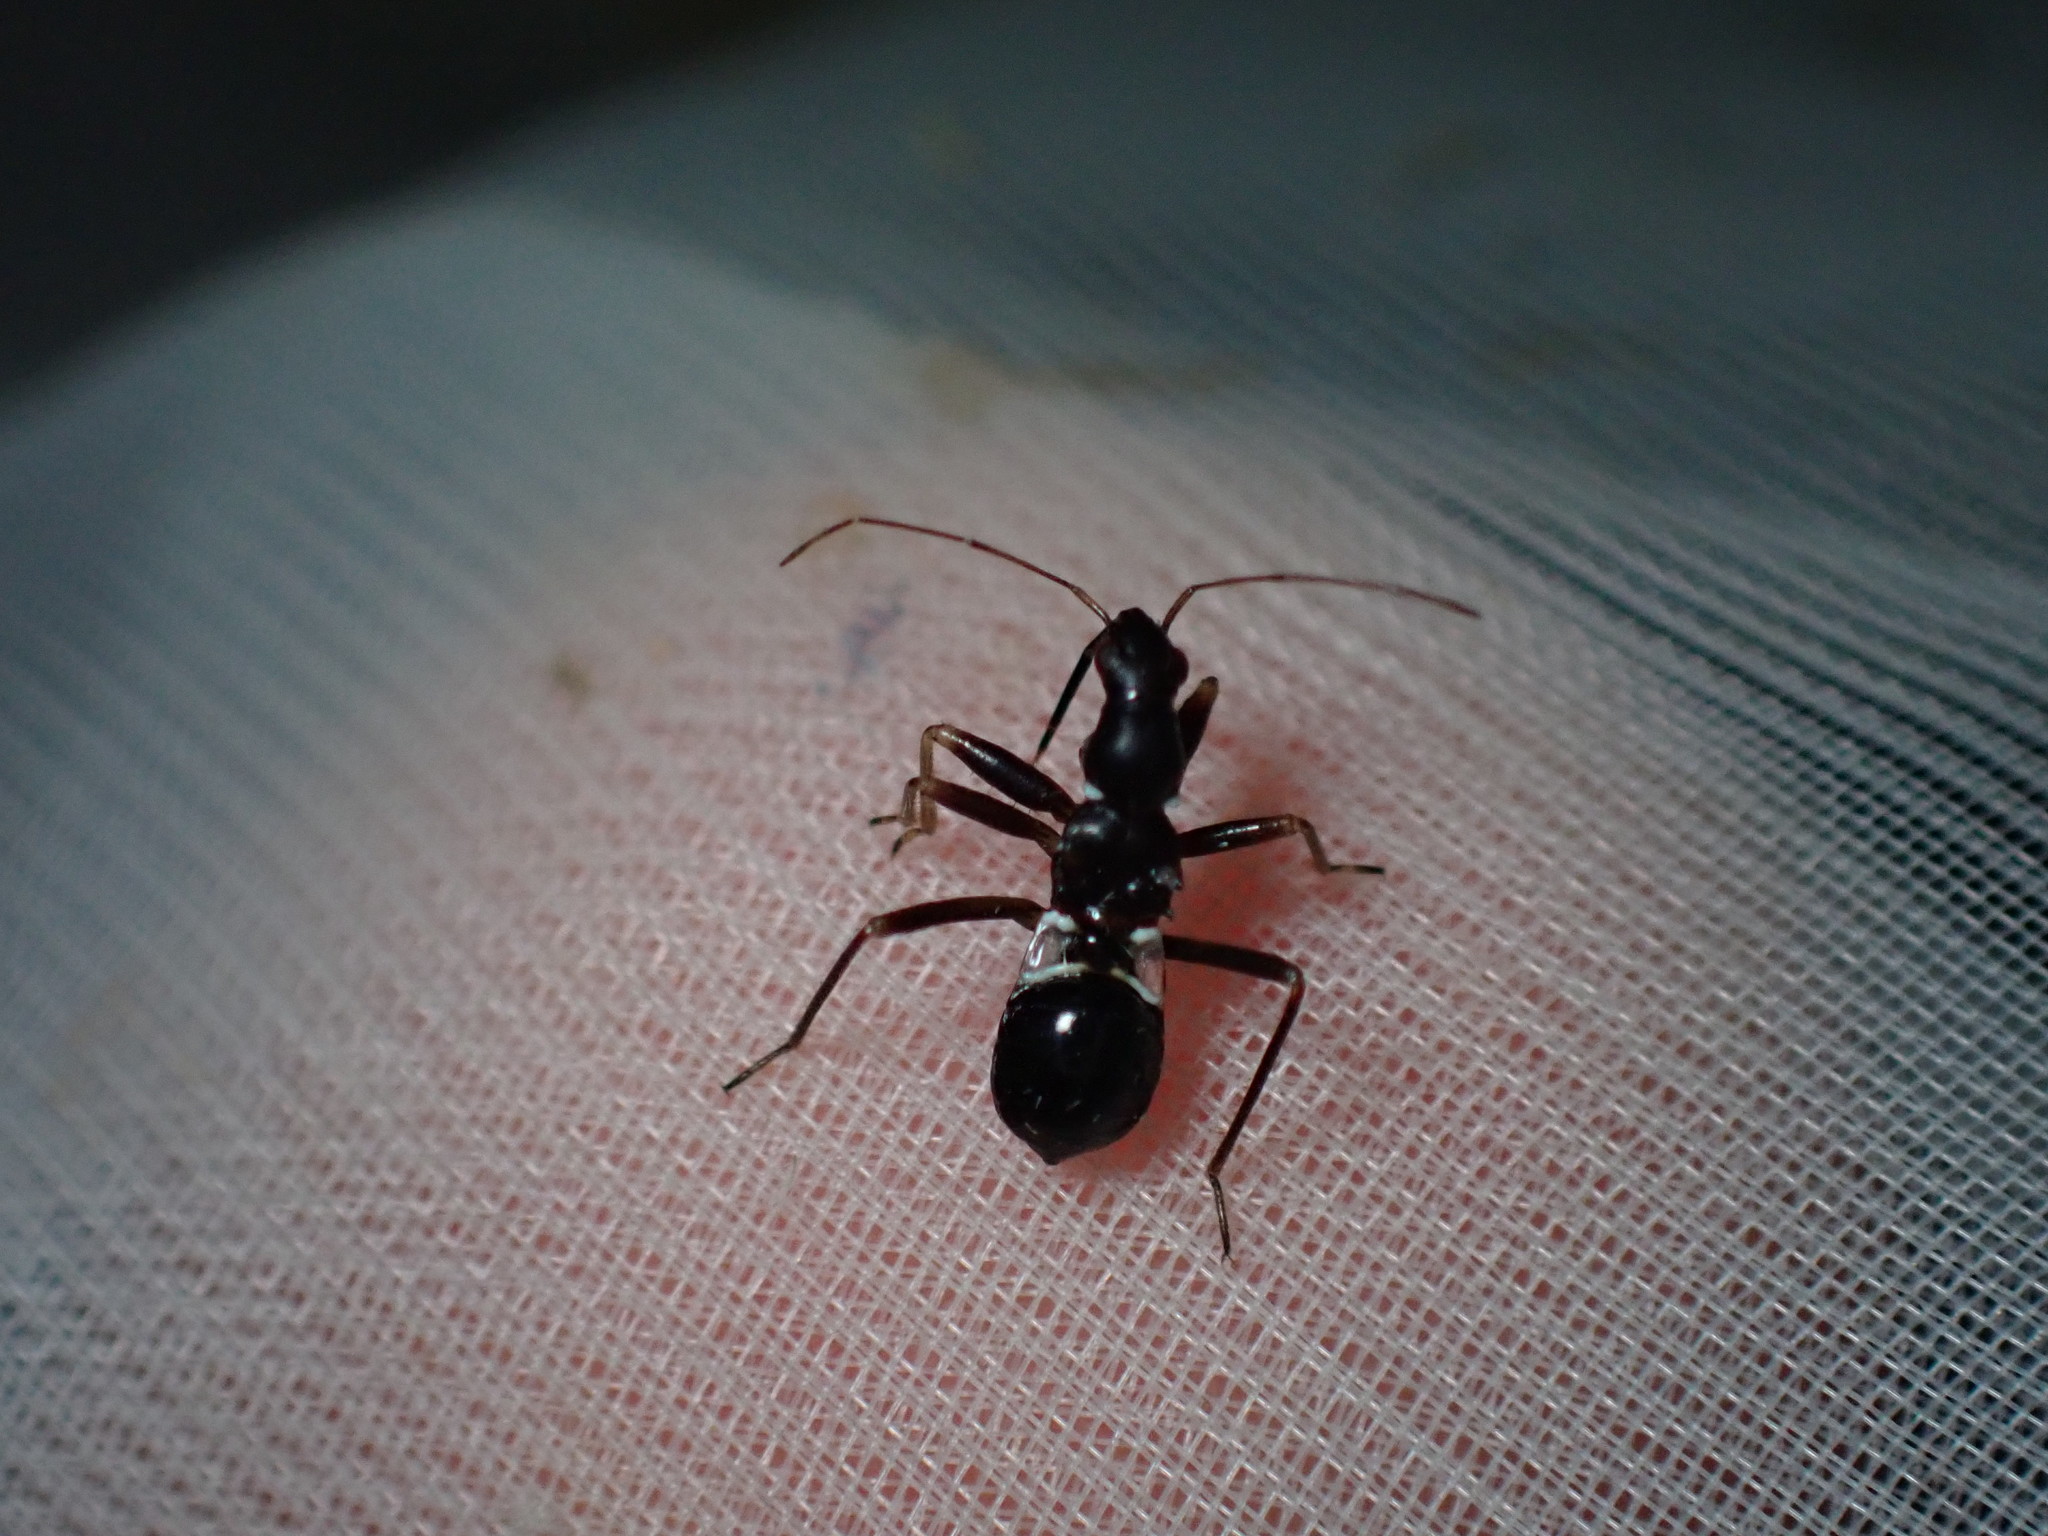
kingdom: Animalia
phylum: Arthropoda
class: Insecta
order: Hemiptera
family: Nabidae
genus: Himacerus
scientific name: Himacerus mirmicoides
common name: Ant damsel bug
